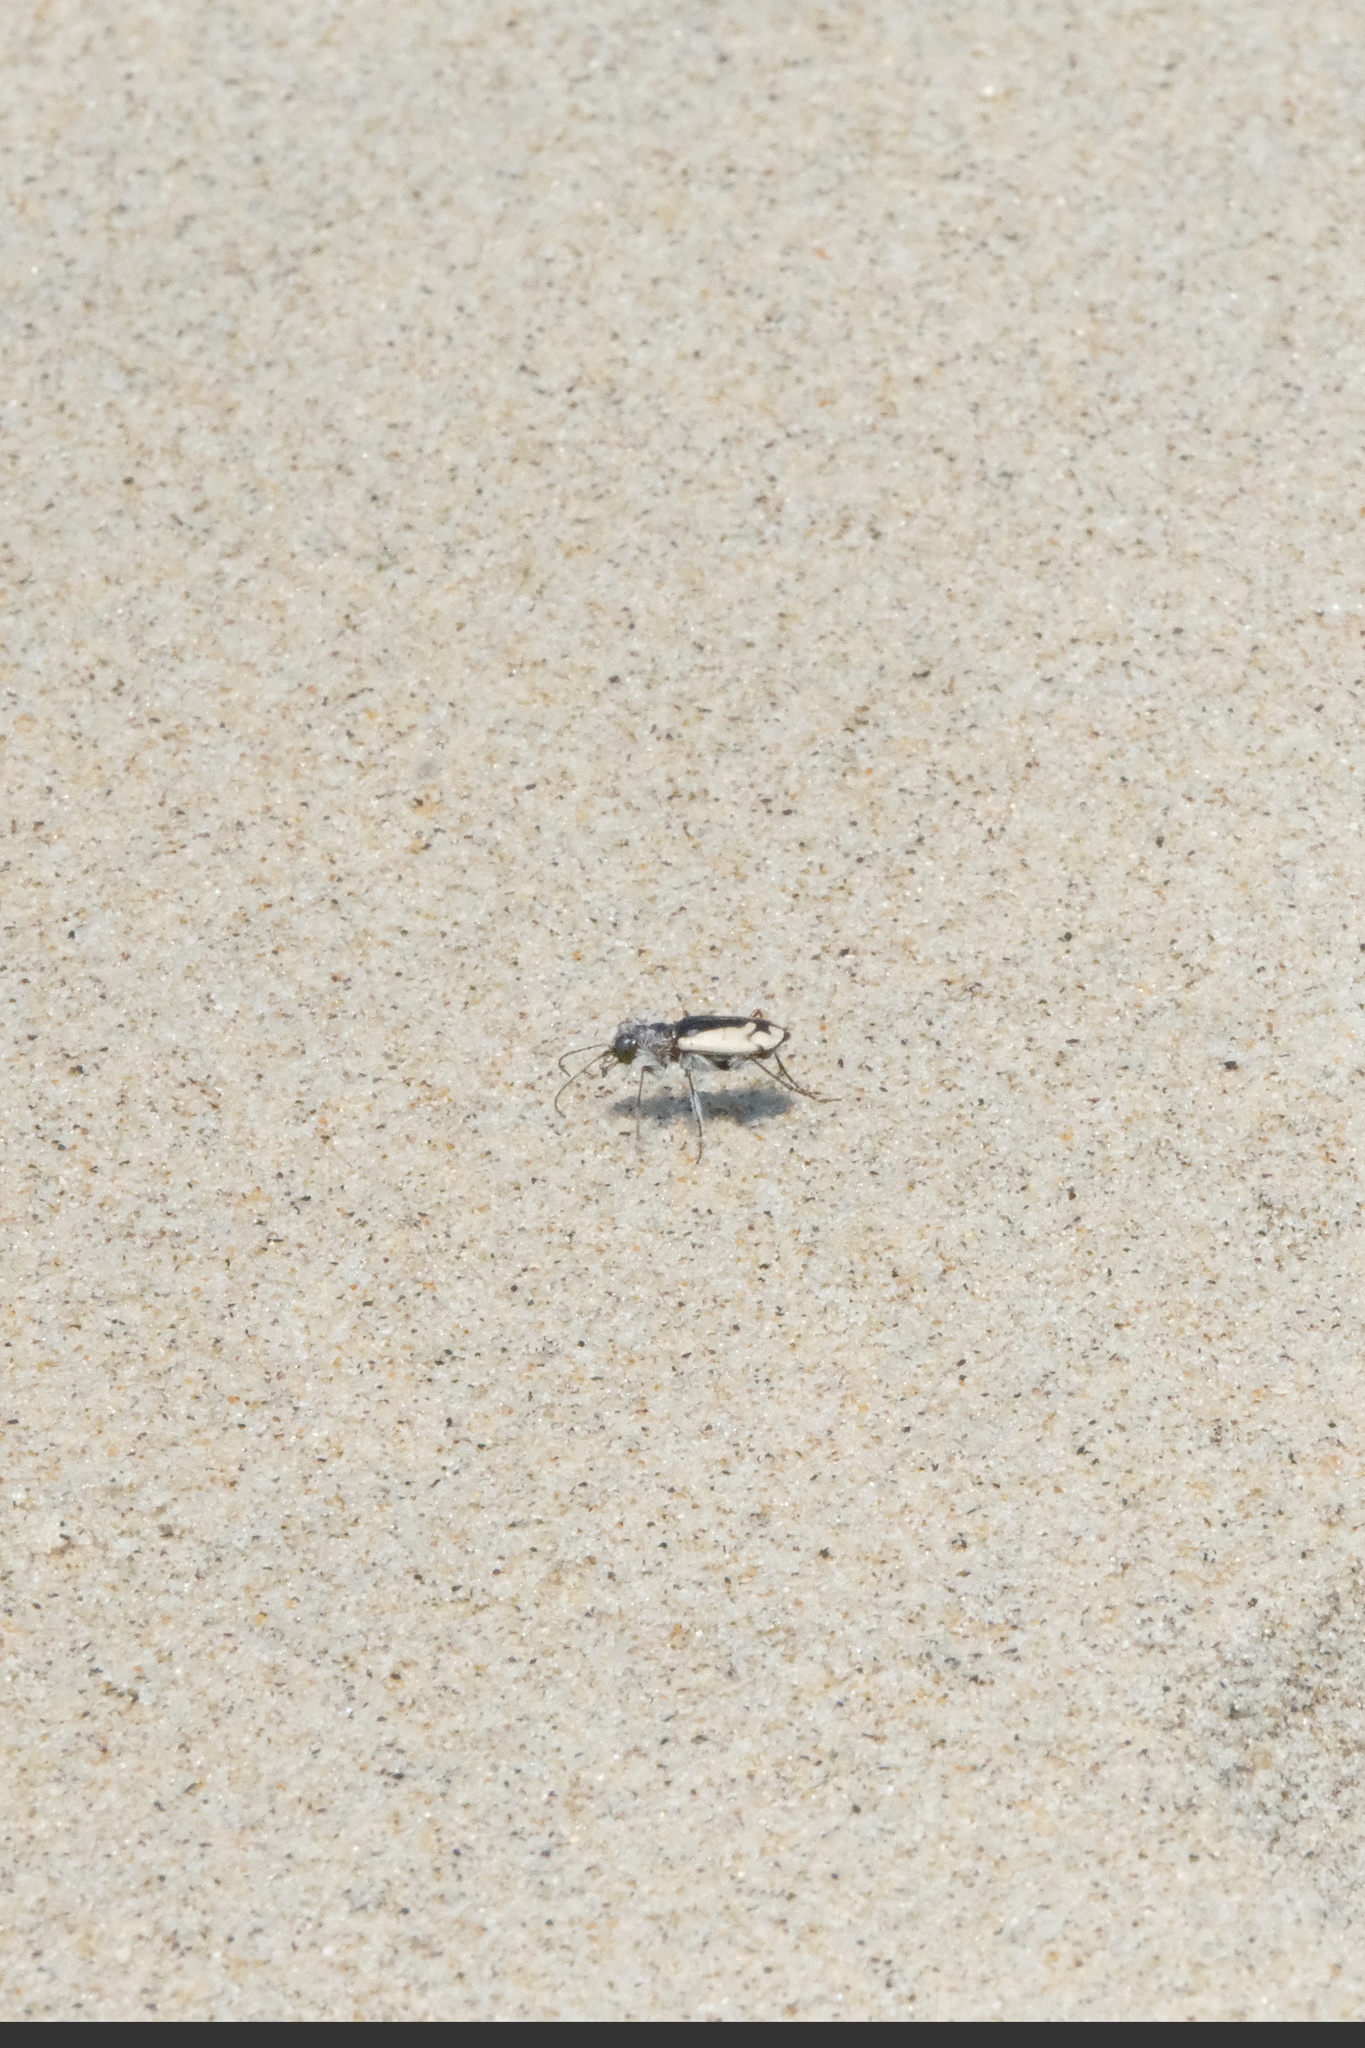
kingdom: Animalia
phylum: Arthropoda
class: Insecta
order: Coleoptera
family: Carabidae
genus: Cicindela
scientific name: Cicindela latesignata
